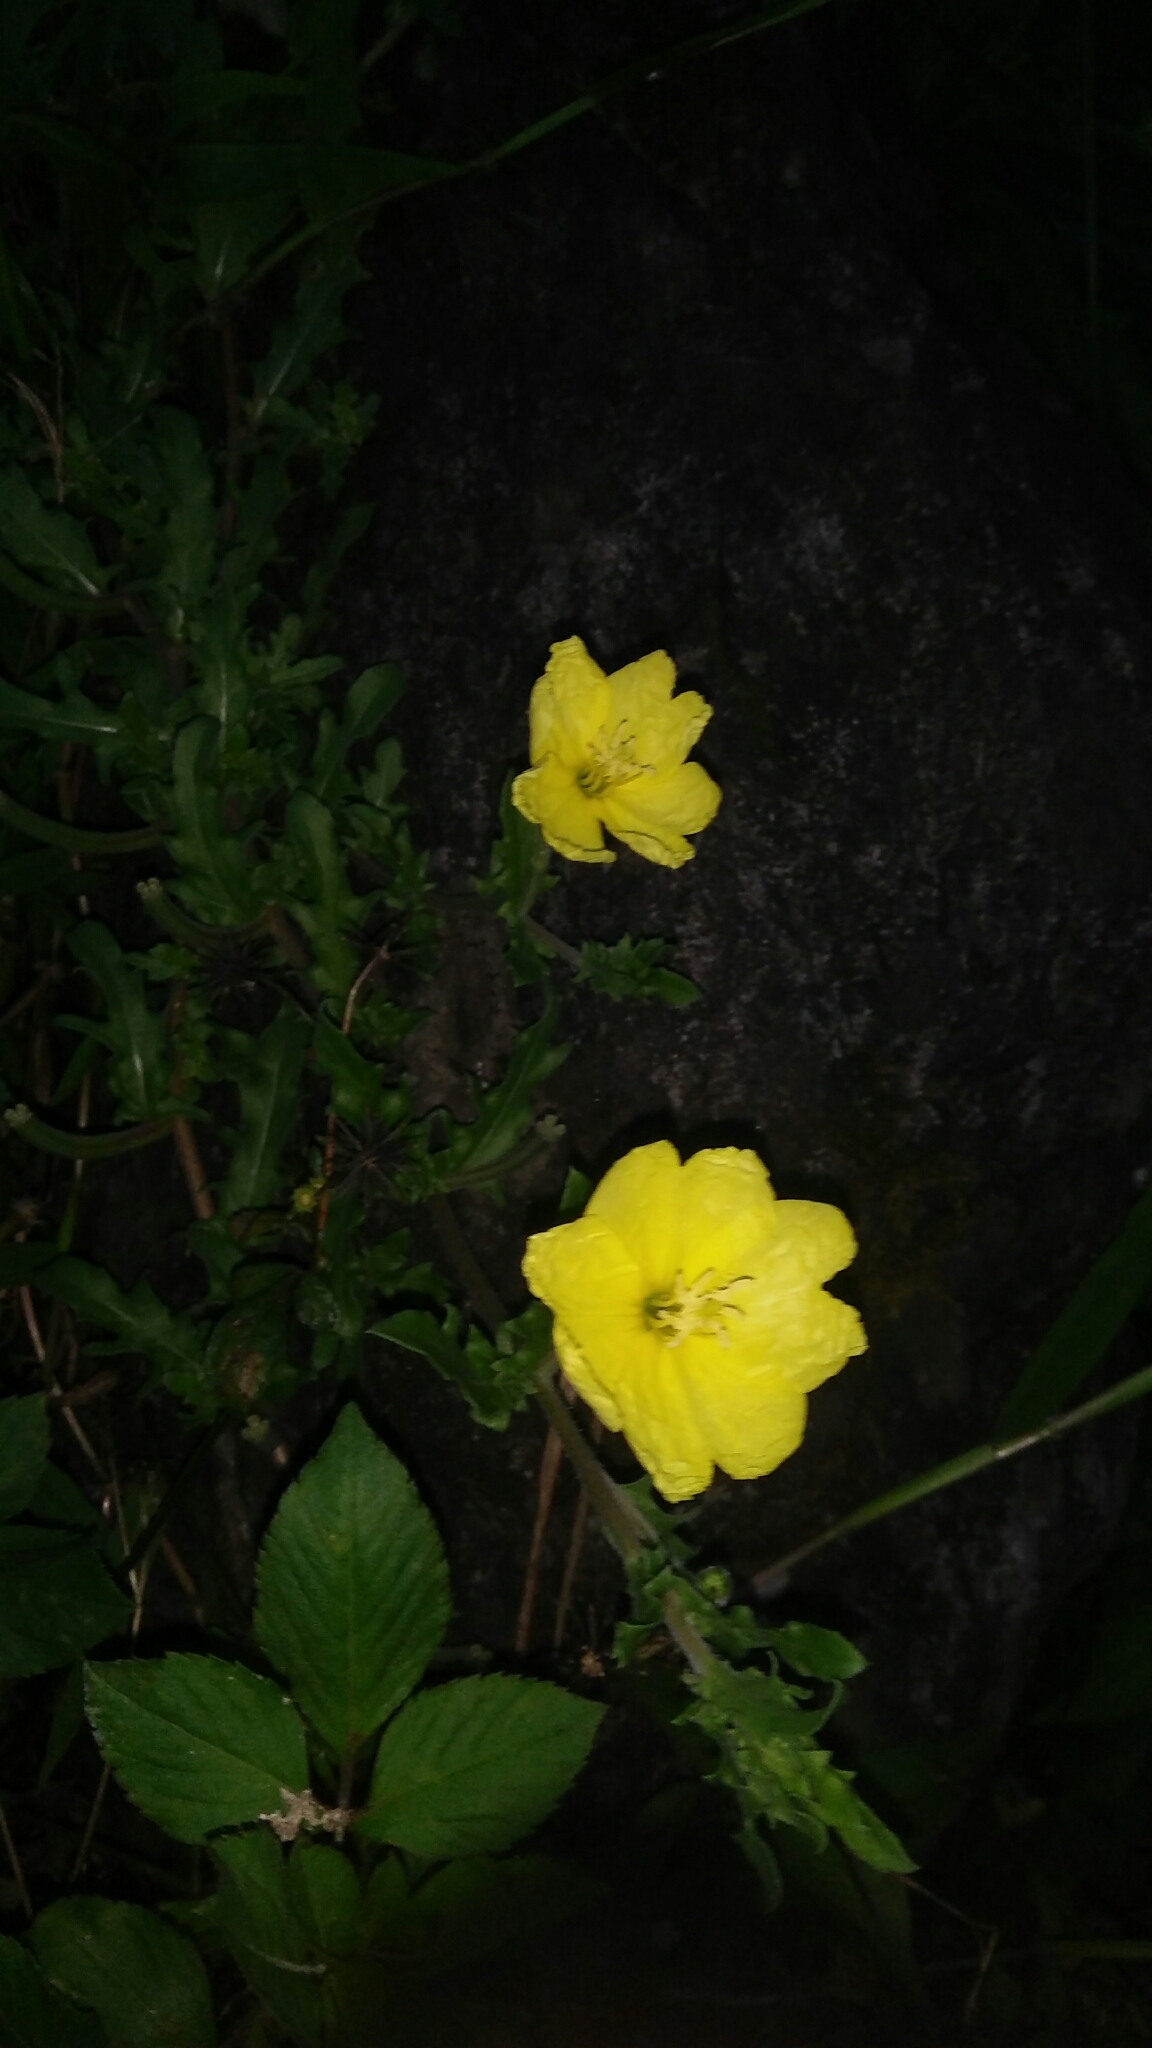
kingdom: Plantae
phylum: Tracheophyta
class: Magnoliopsida
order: Myrtales
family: Onagraceae
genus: Oenothera
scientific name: Oenothera laciniata
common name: Cut-leaved evening-primrose
